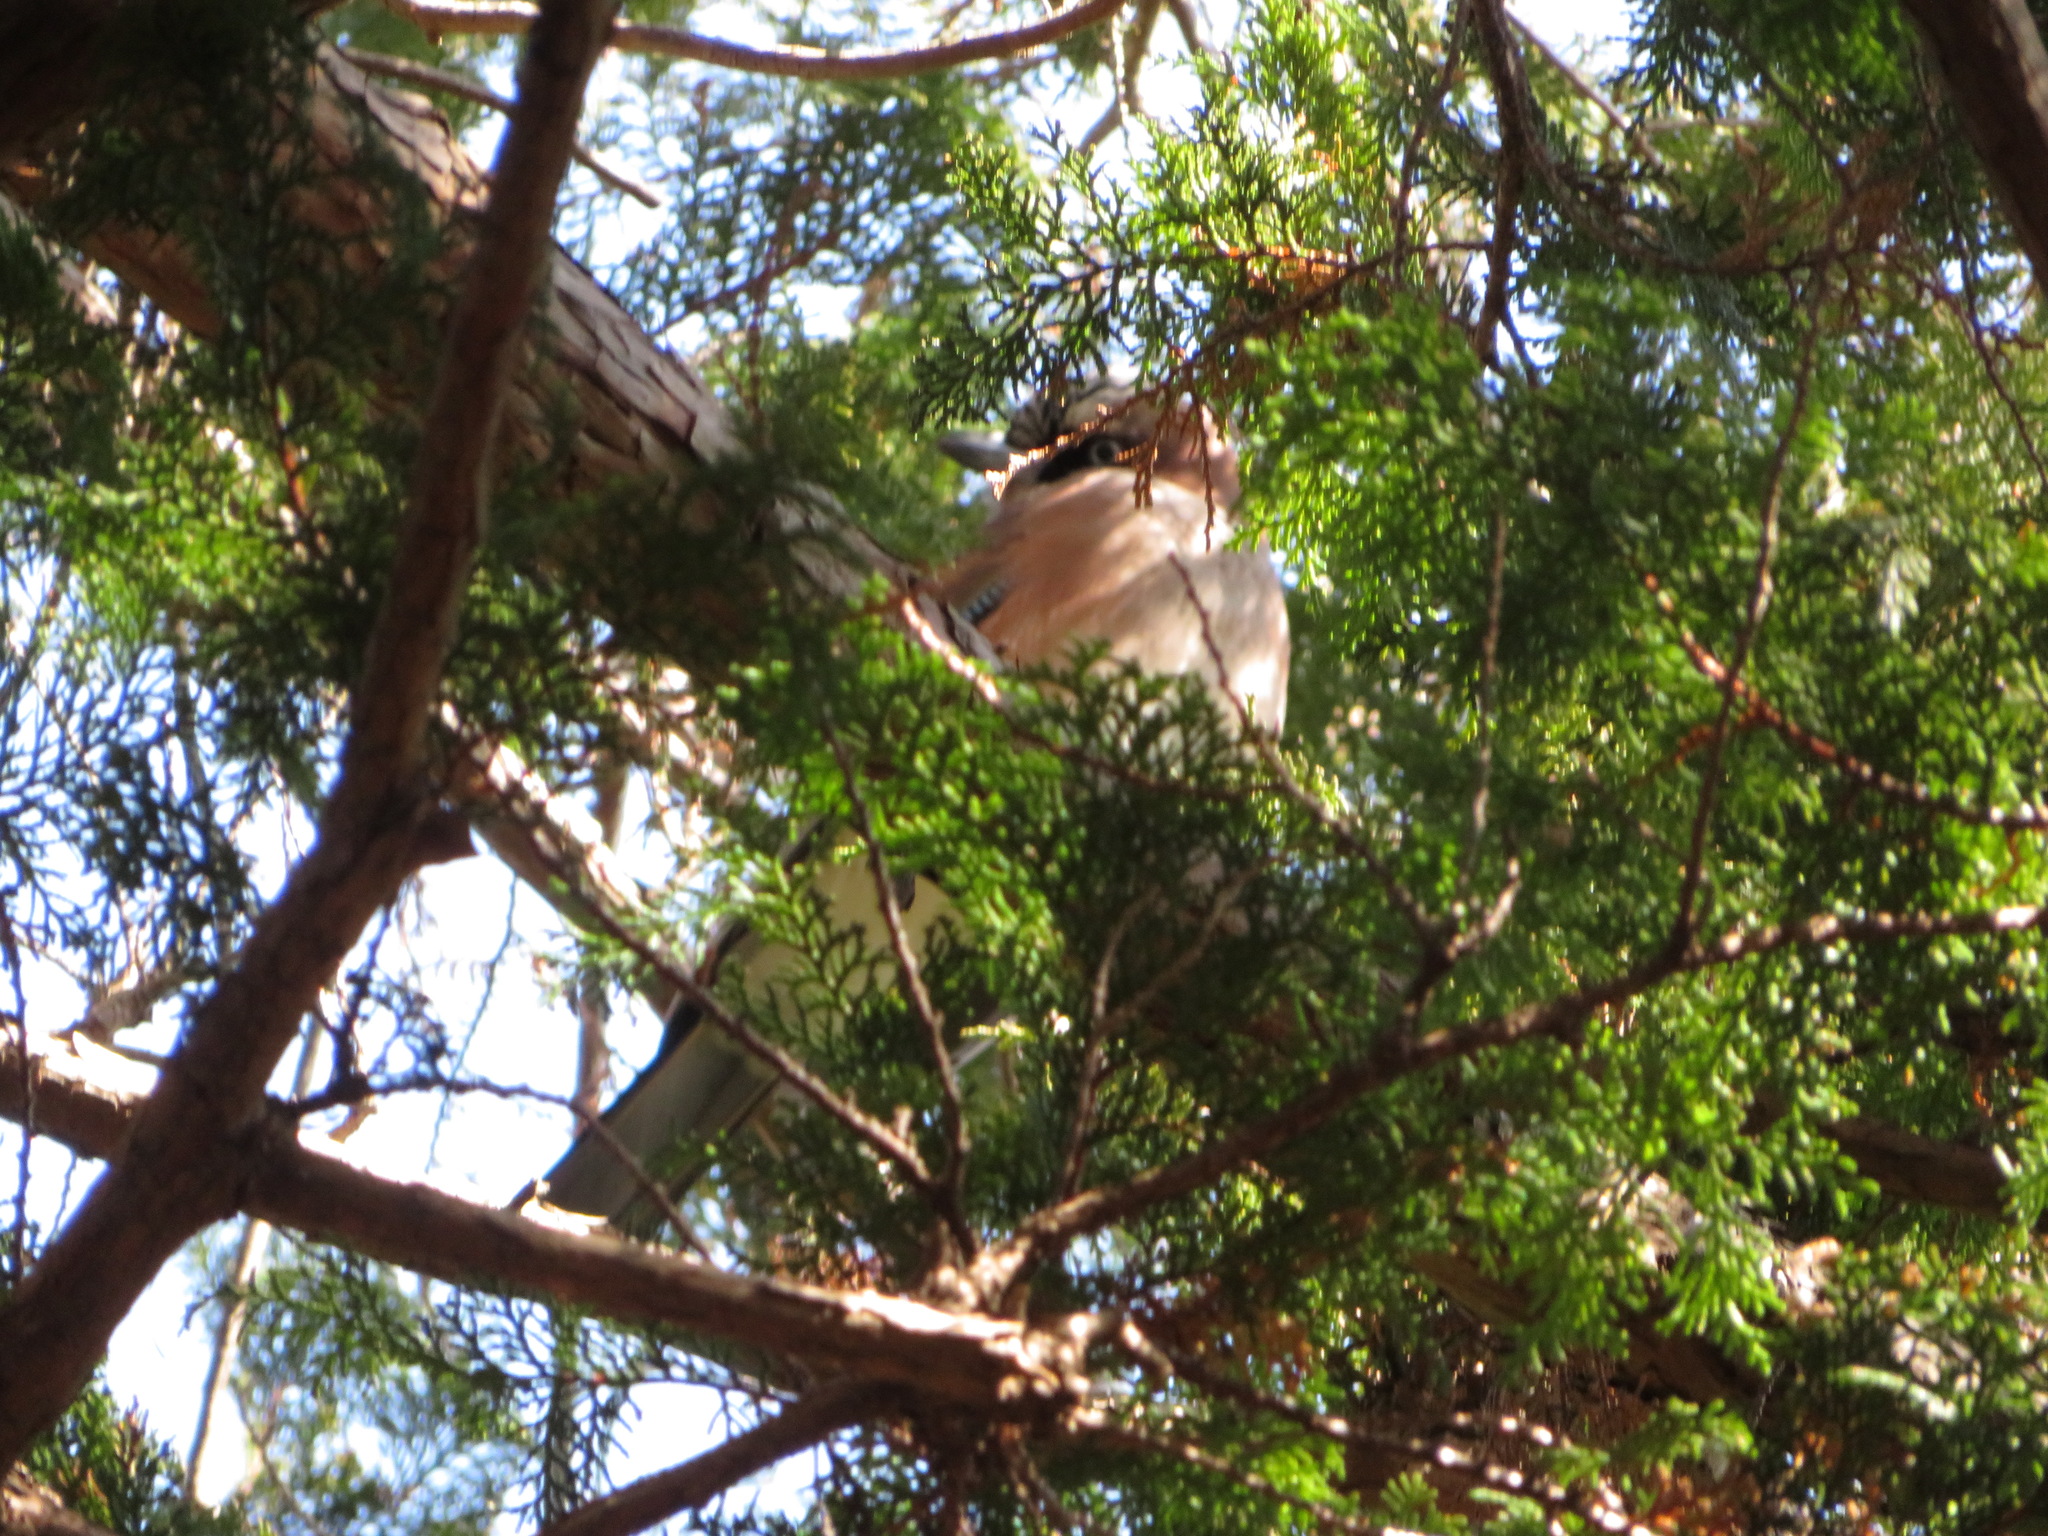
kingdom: Animalia
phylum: Chordata
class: Aves
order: Passeriformes
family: Corvidae
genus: Garrulus
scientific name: Garrulus glandarius
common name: Eurasian jay
